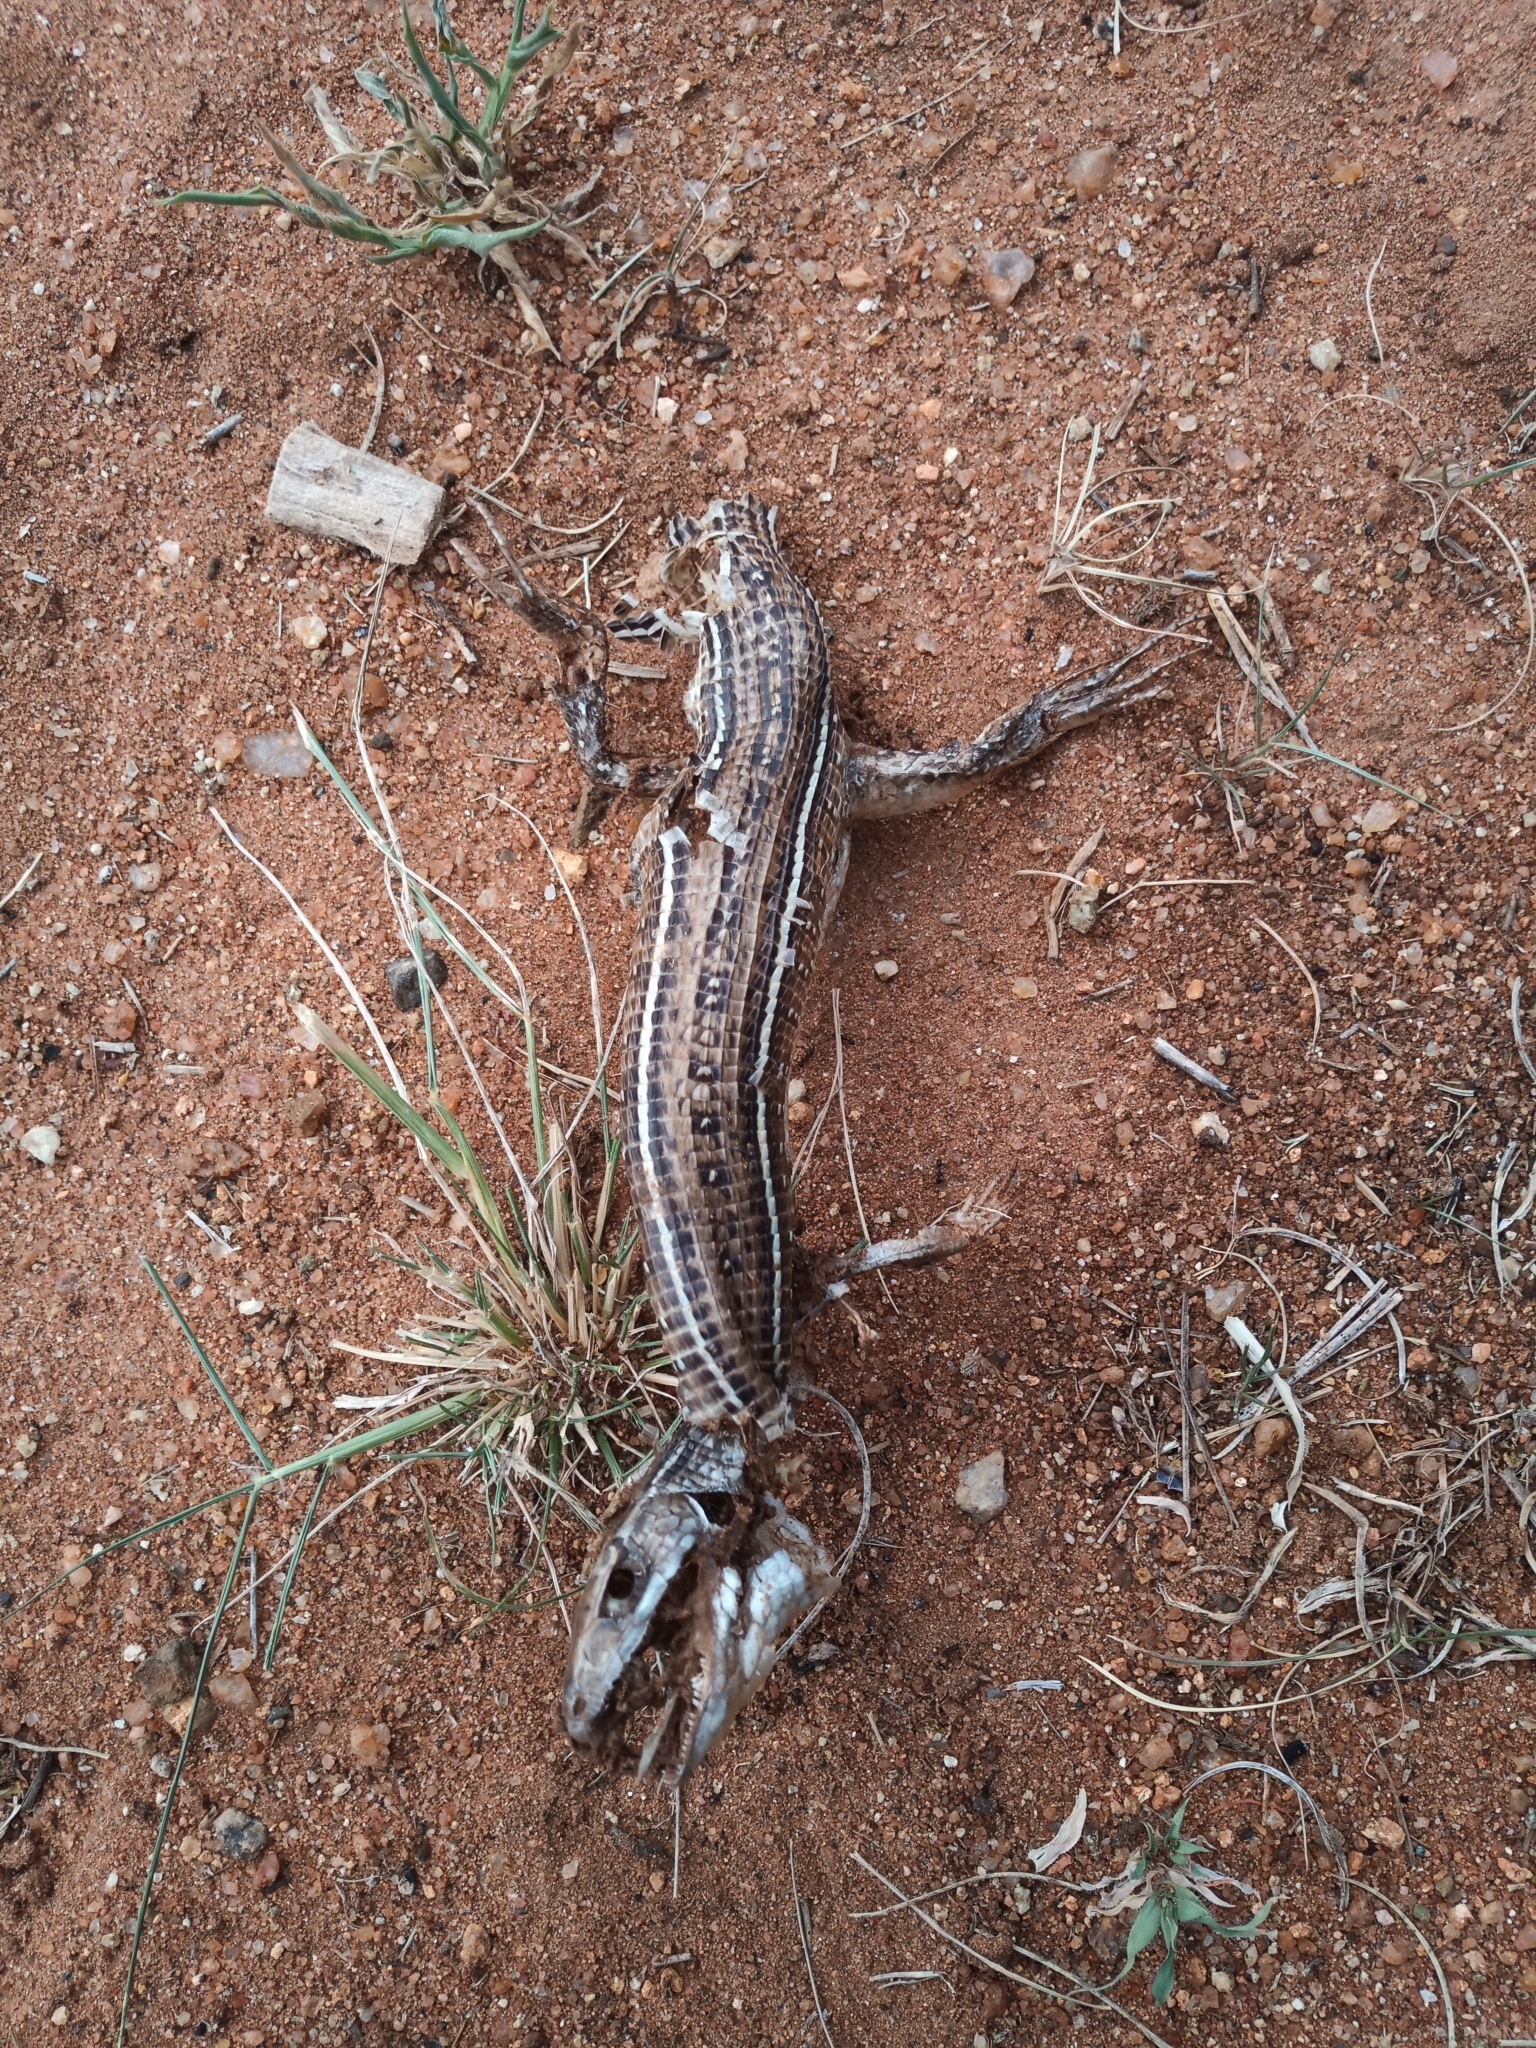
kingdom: Animalia
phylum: Chordata
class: Squamata
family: Gerrhosauridae
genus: Gerrhosaurus
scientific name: Gerrhosaurus nigrolineatus
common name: Black-lined plated lizard
